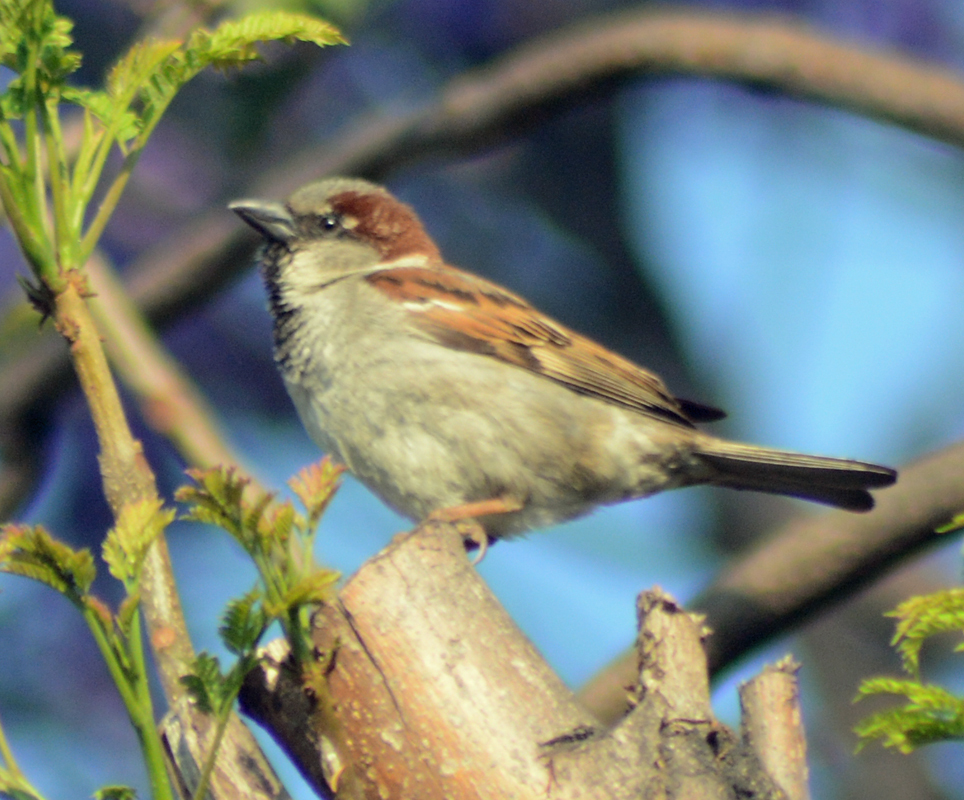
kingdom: Animalia
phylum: Chordata
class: Aves
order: Passeriformes
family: Passeridae
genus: Passer
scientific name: Passer domesticus
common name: House sparrow
